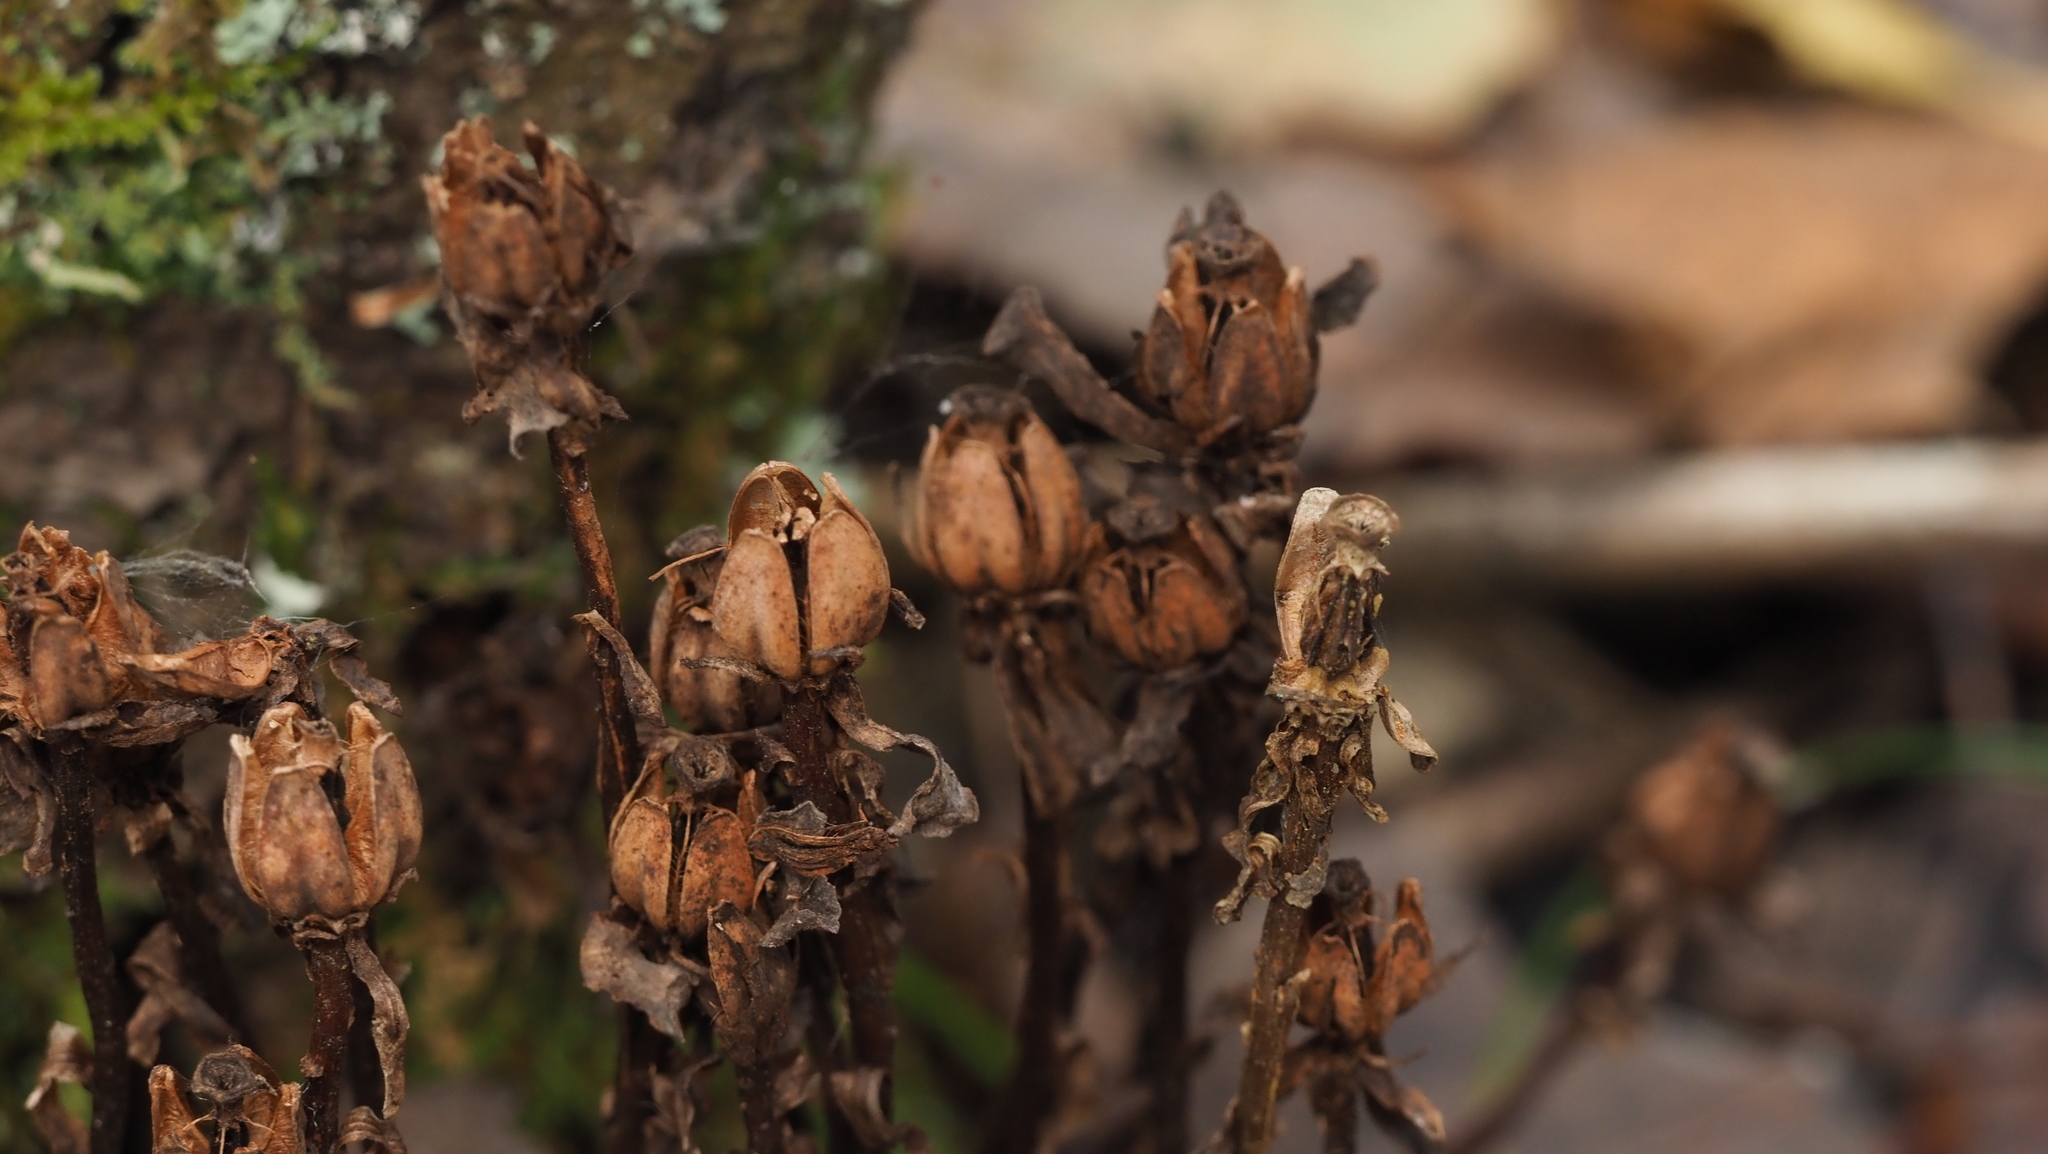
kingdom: Plantae
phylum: Tracheophyta
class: Magnoliopsida
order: Ericales
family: Ericaceae
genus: Monotropa
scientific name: Monotropa uniflora
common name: Convulsion root
